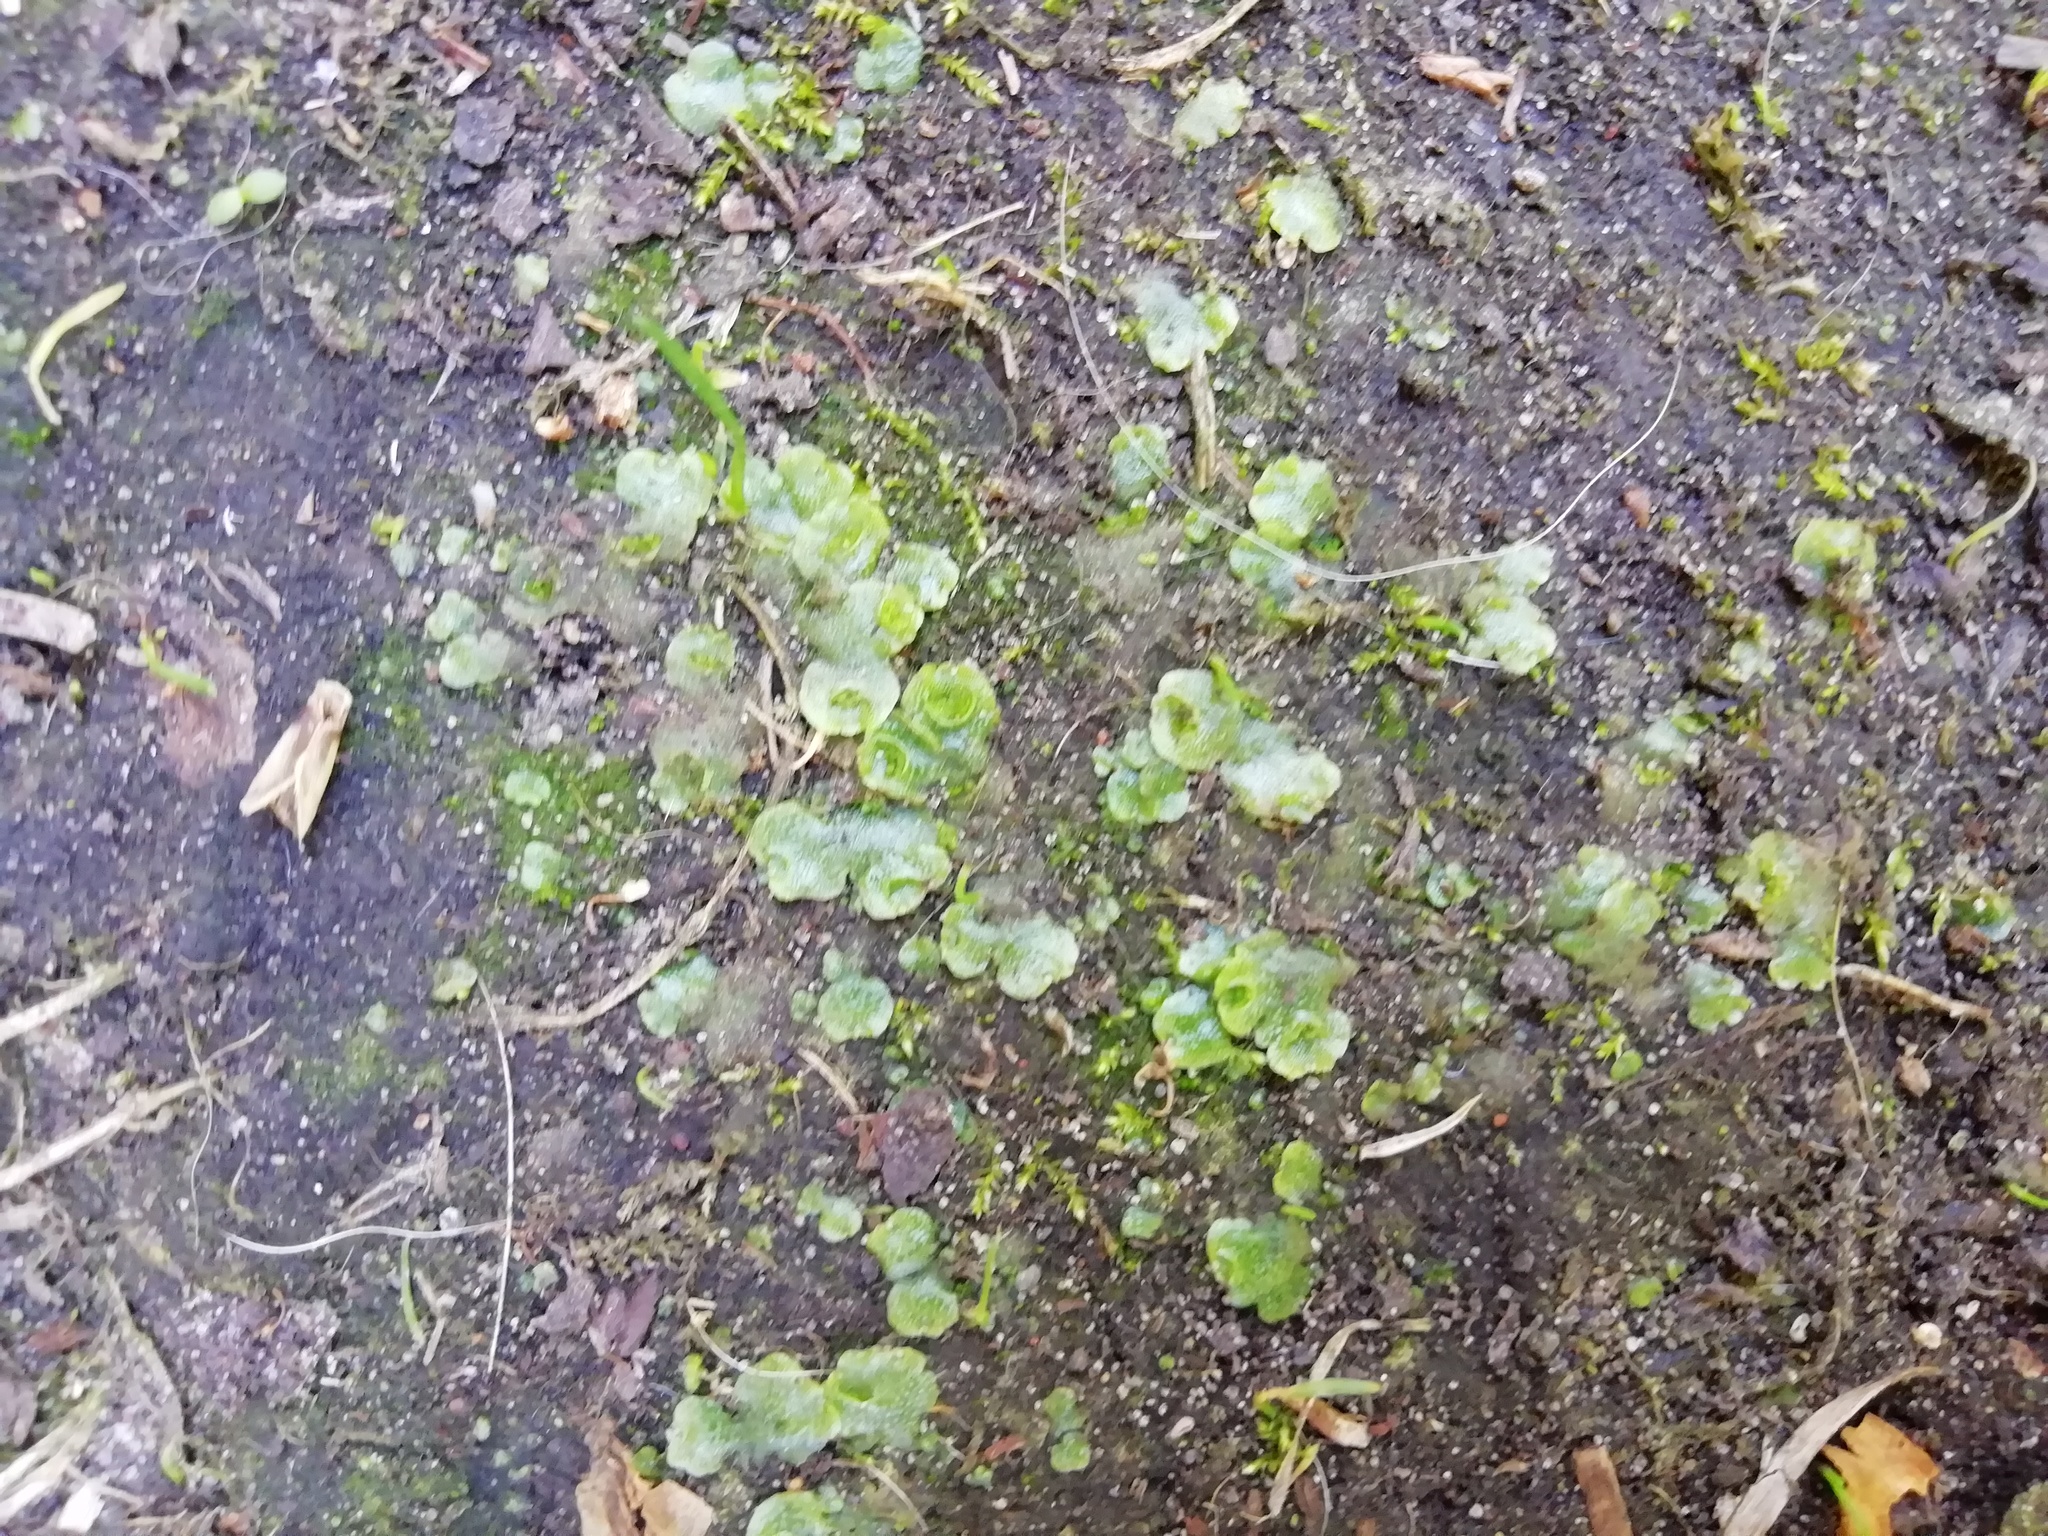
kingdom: Plantae
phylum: Marchantiophyta
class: Marchantiopsida
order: Lunulariales
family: Lunulariaceae
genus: Lunularia
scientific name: Lunularia cruciata
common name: Crescent-cup liverwort
